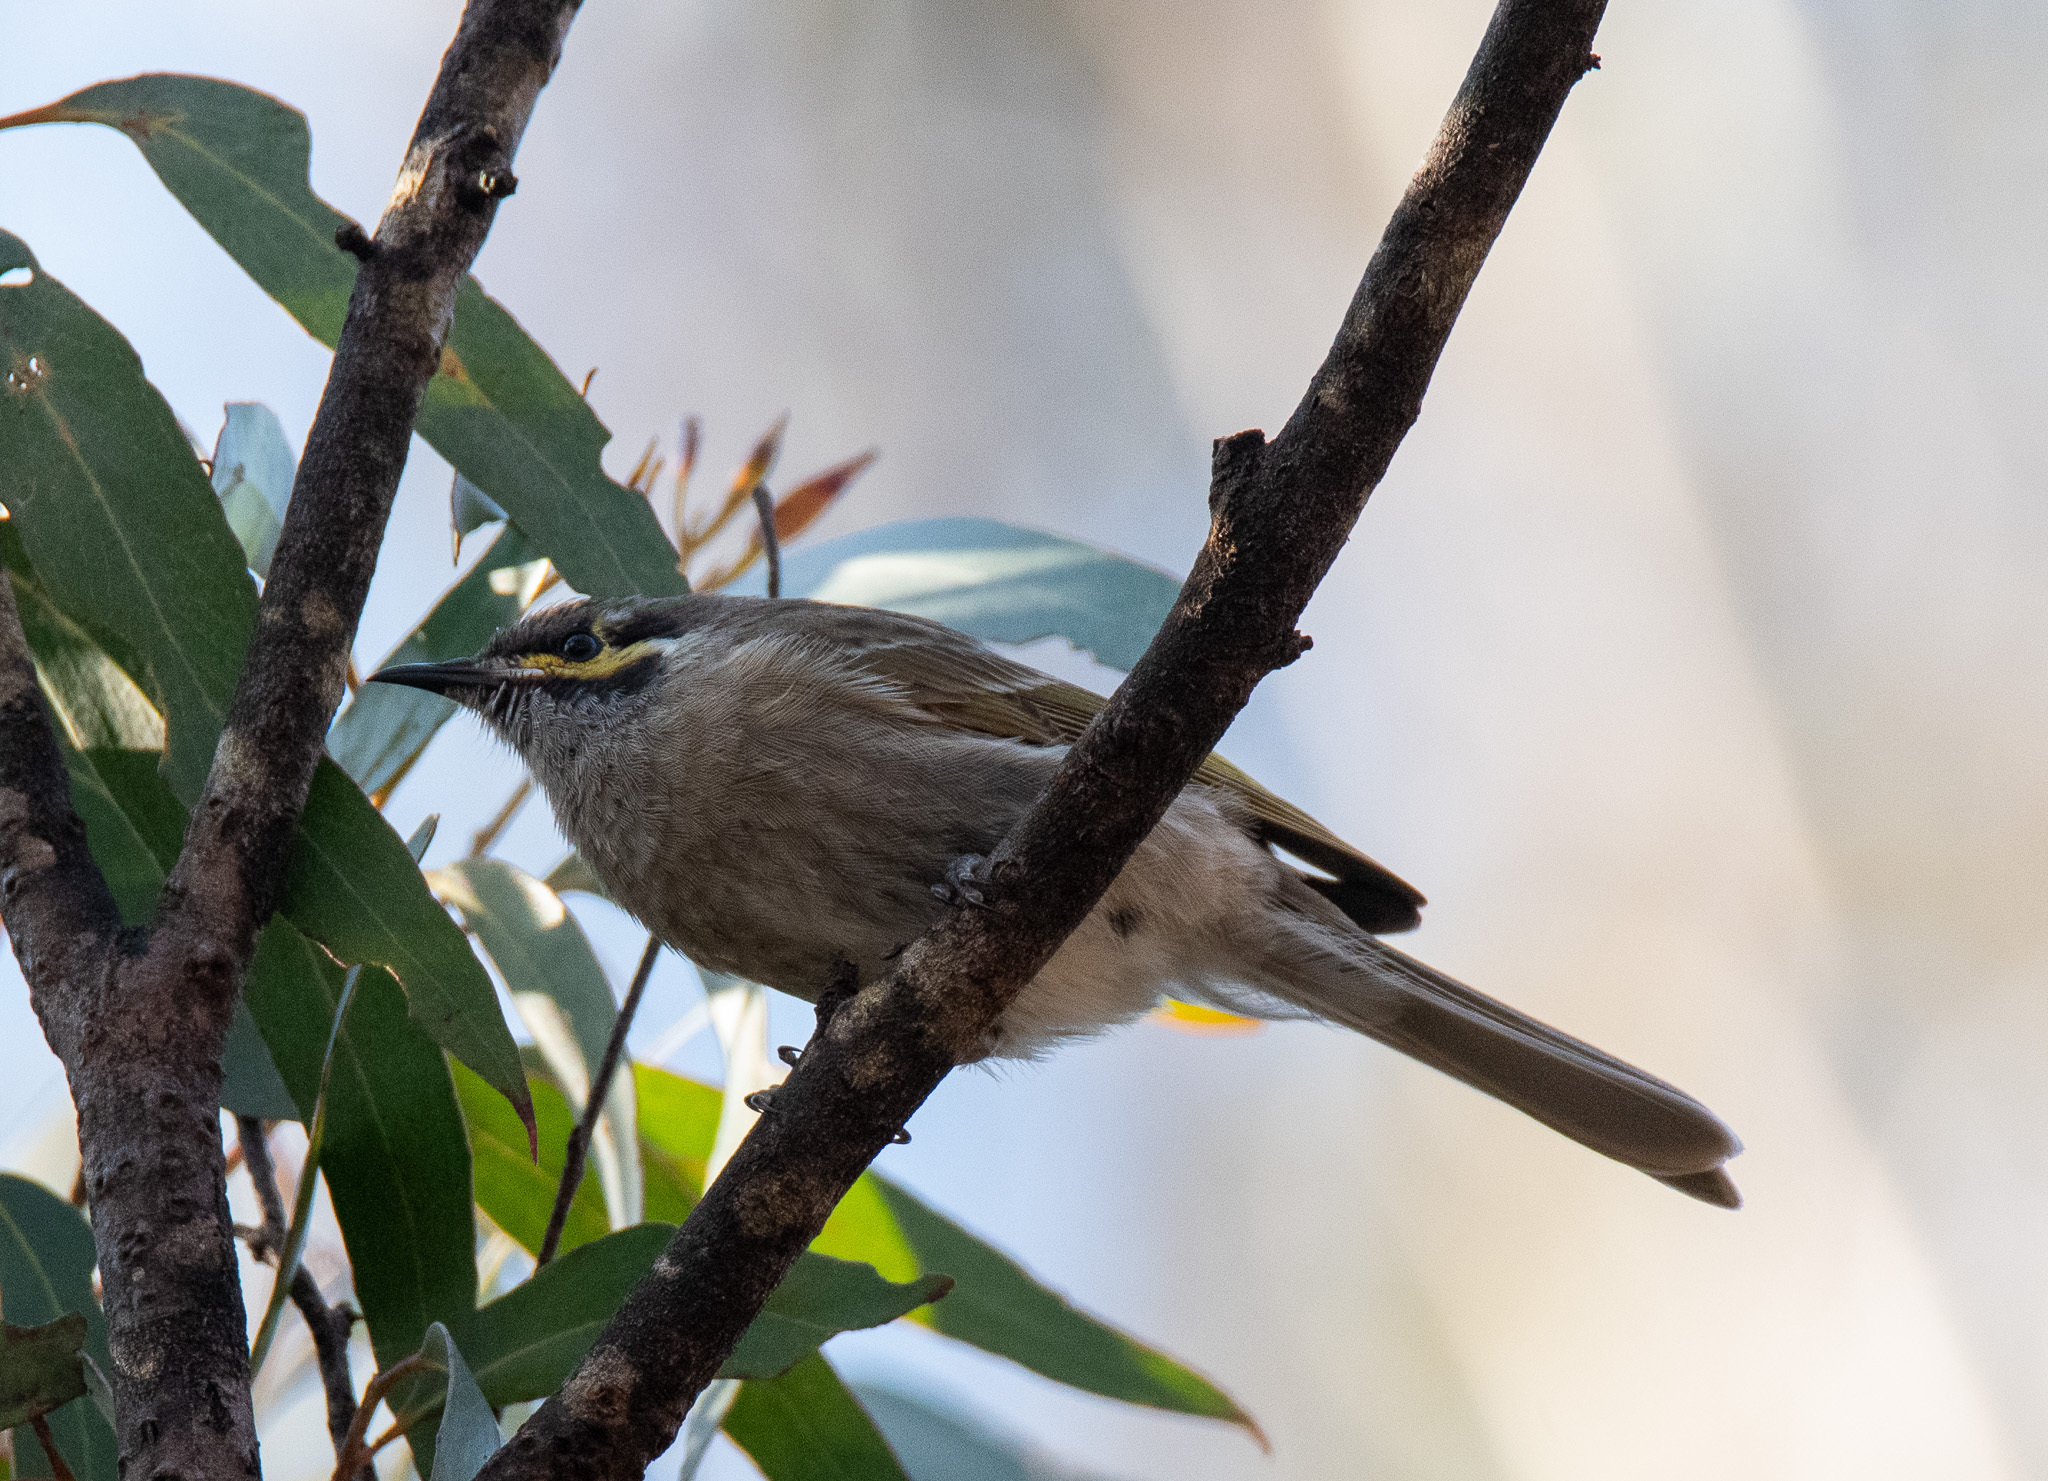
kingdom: Animalia
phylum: Chordata
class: Aves
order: Passeriformes
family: Meliphagidae
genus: Caligavis
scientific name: Caligavis chrysops
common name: Yellow-faced honeyeater
